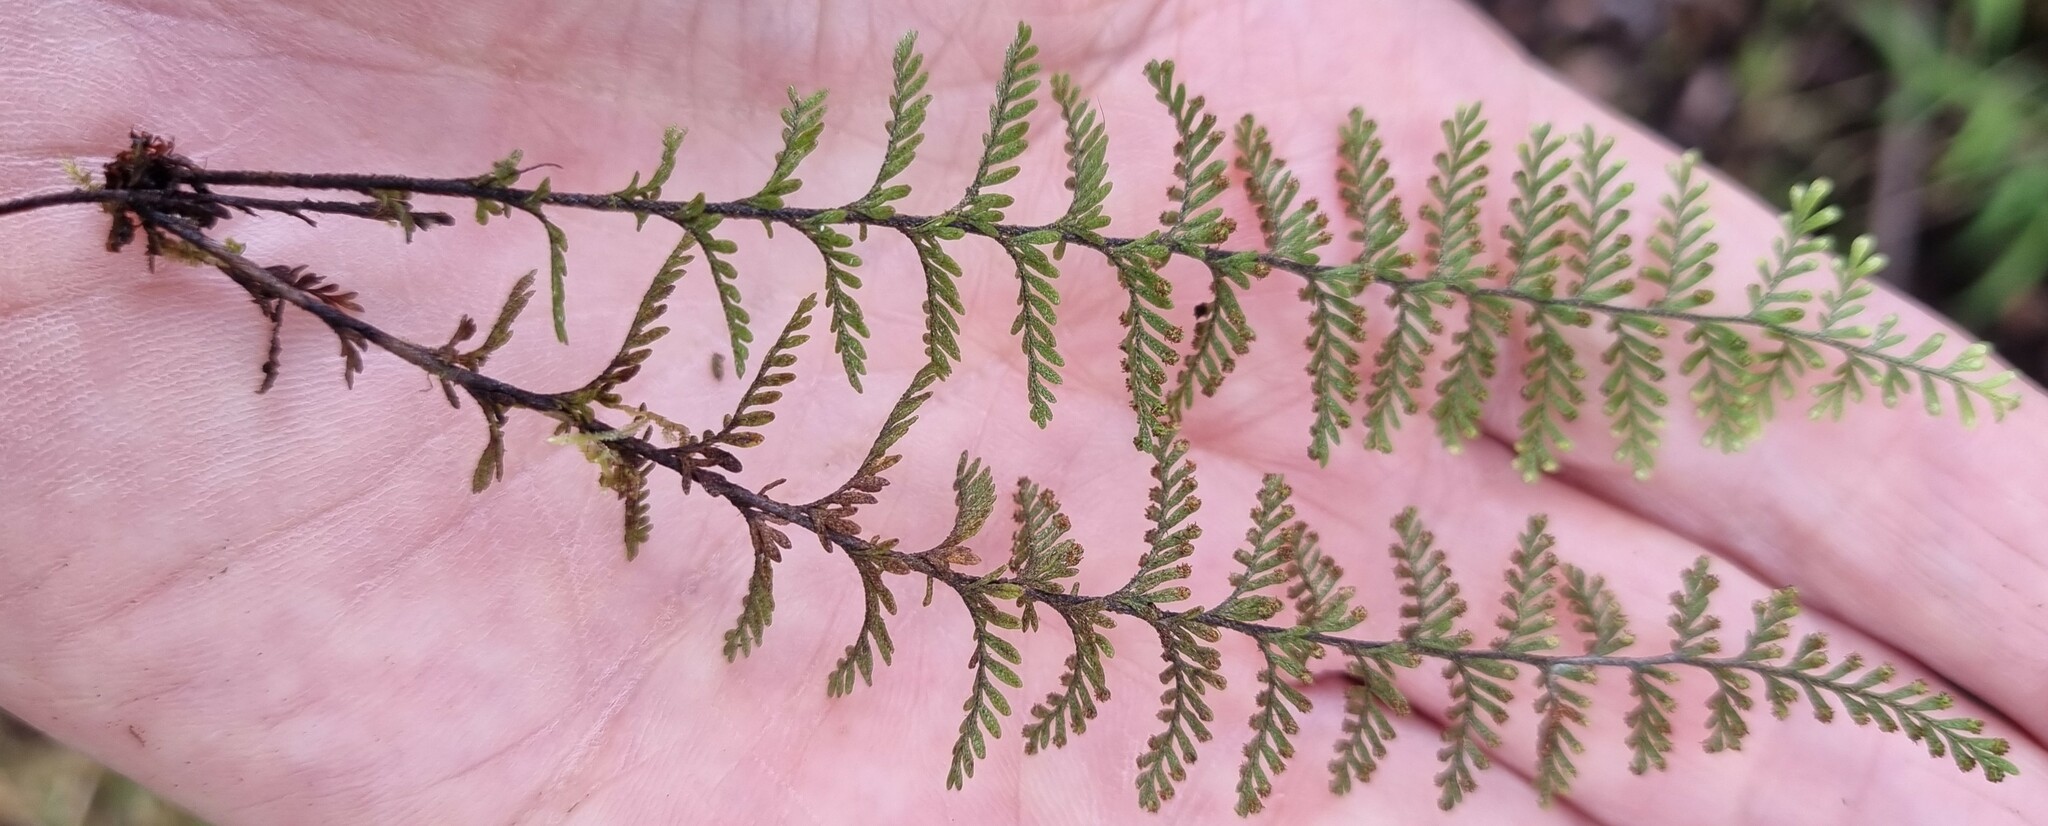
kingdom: Plantae
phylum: Tracheophyta
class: Polypodiopsida
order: Polypodiales
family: Polypodiaceae
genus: Adenophorus
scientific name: Adenophorus tamariscinus
